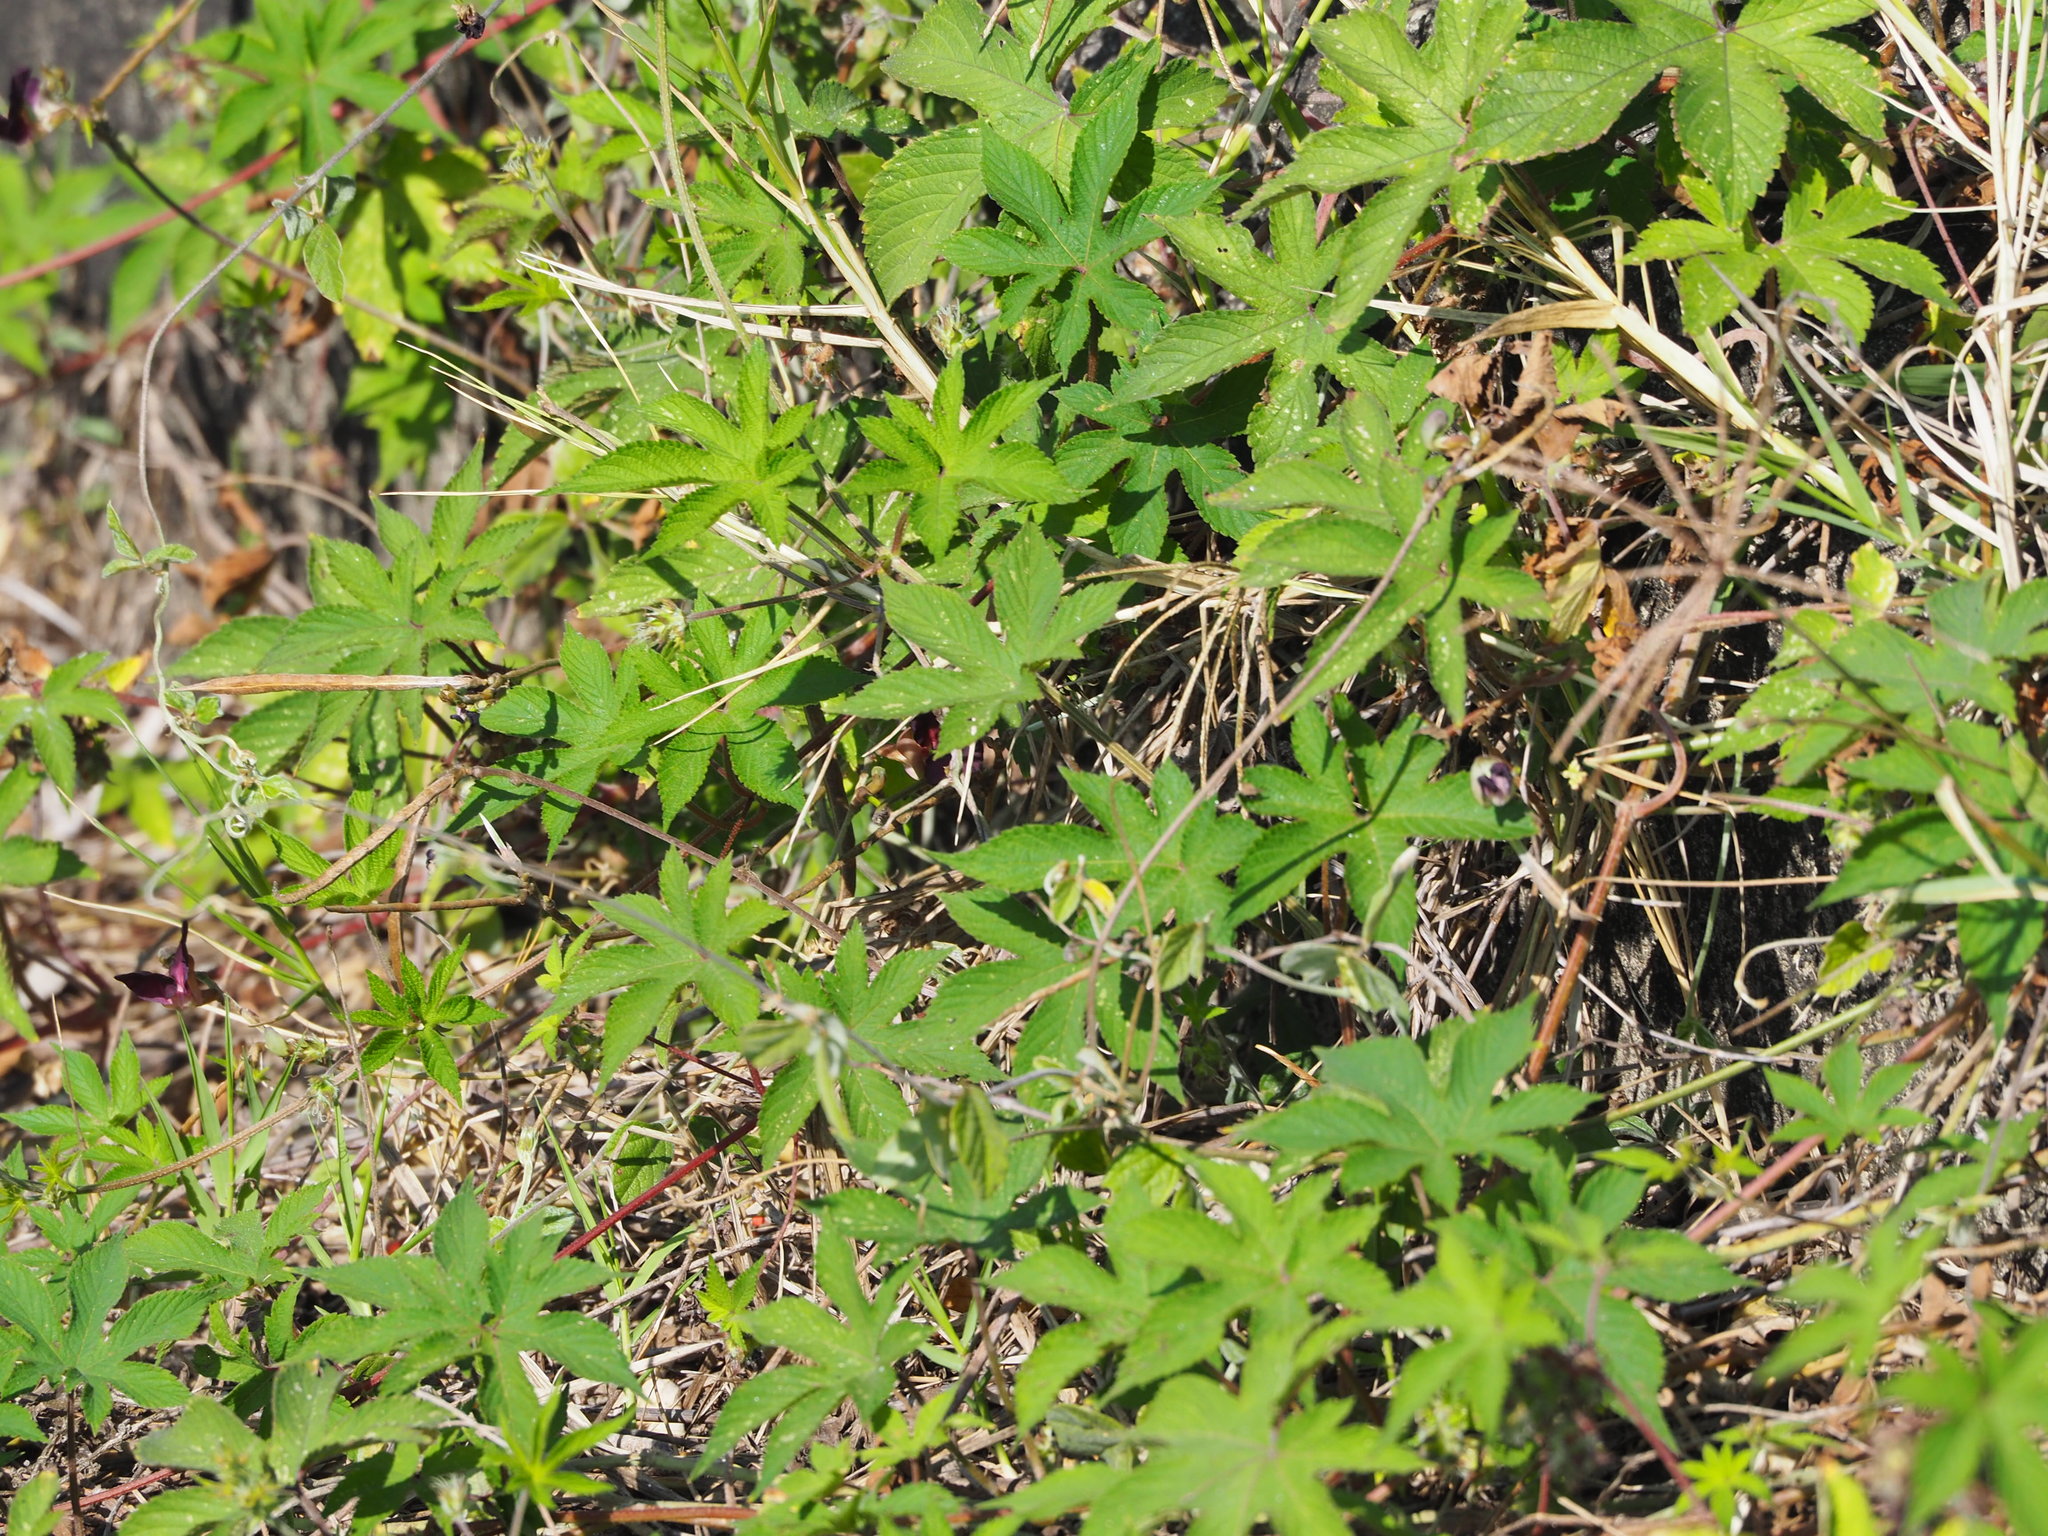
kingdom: Plantae
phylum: Tracheophyta
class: Magnoliopsida
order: Rosales
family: Cannabaceae
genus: Humulus
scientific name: Humulus scandens
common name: Japanese hop
